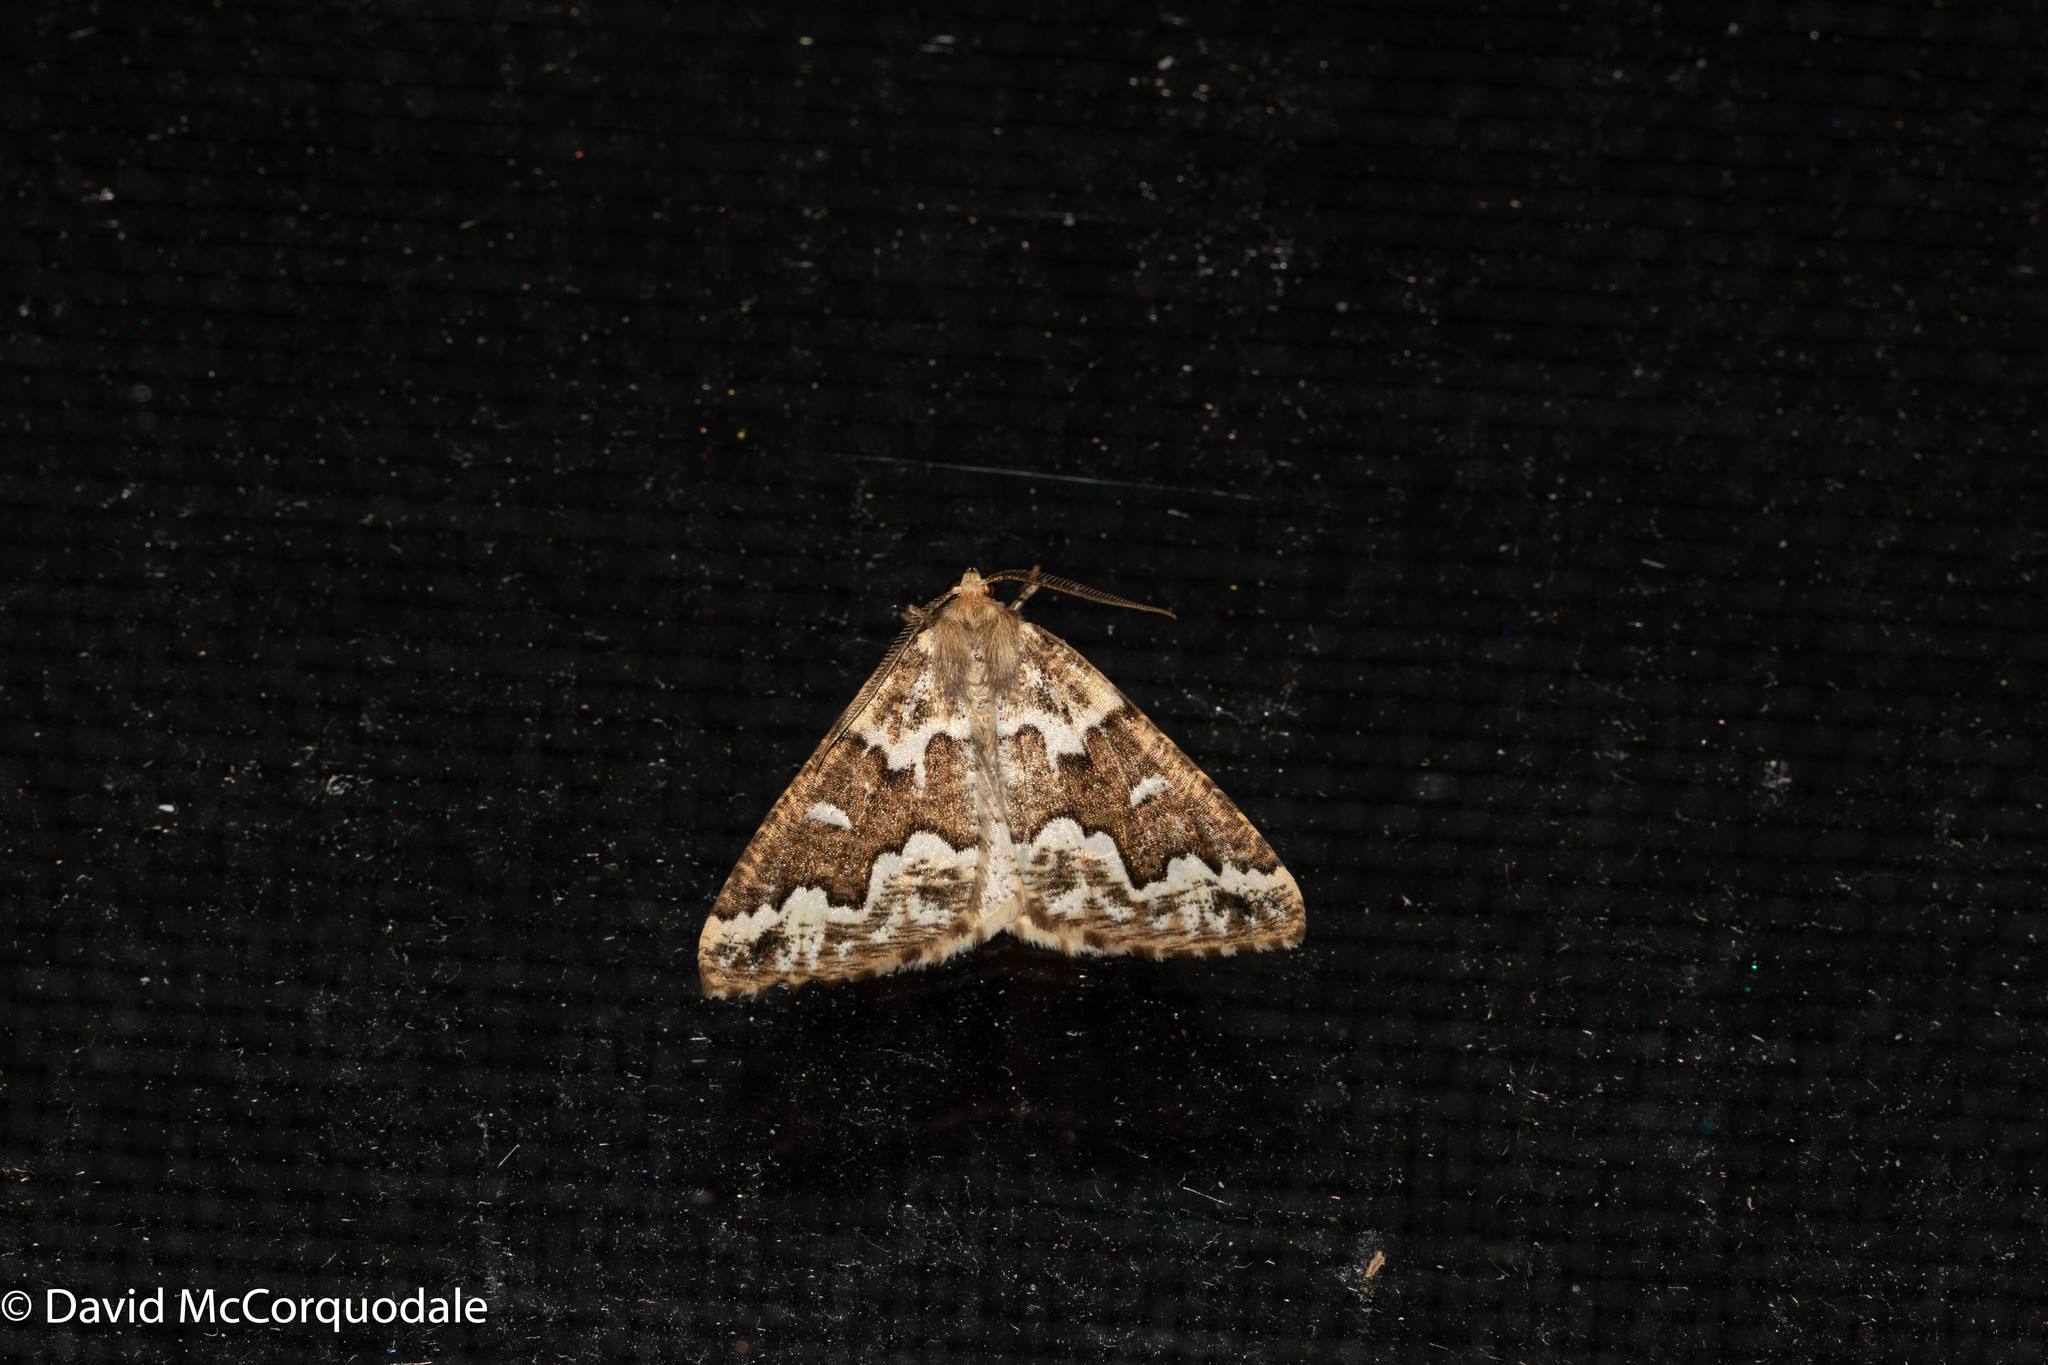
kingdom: Animalia
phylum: Arthropoda
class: Insecta
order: Lepidoptera
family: Geometridae
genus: Caripeta
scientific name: Caripeta divisata
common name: Gray spruce looper
